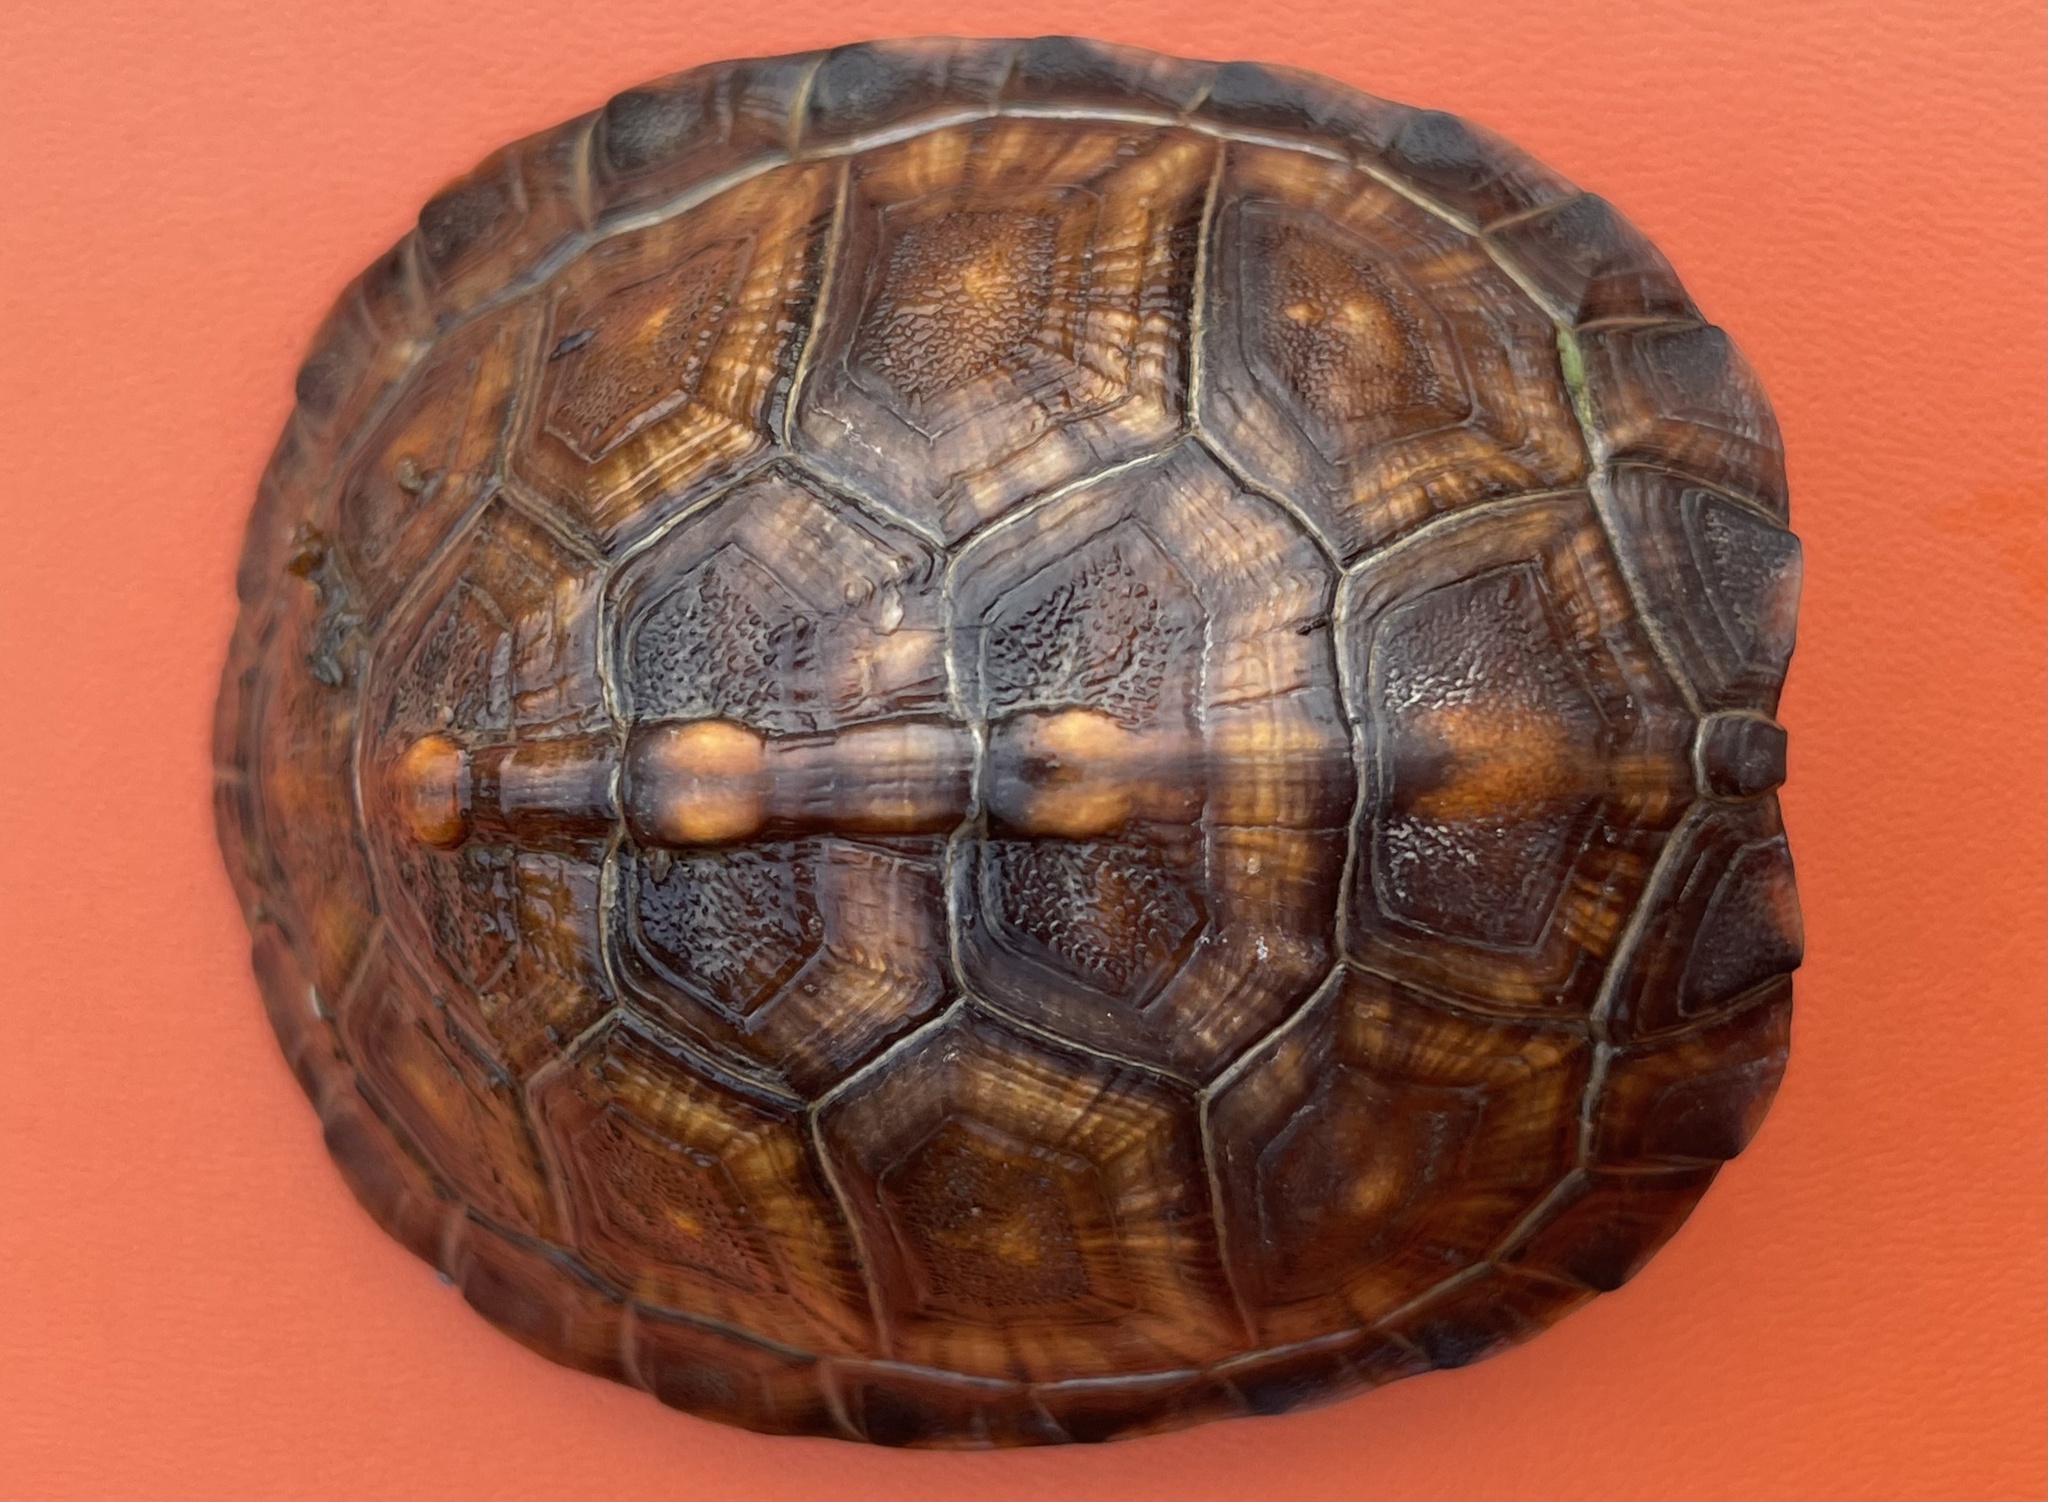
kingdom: Animalia
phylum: Chordata
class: Testudines
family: Emydidae
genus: Terrapene
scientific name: Terrapene carolina
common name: Common box turtle
